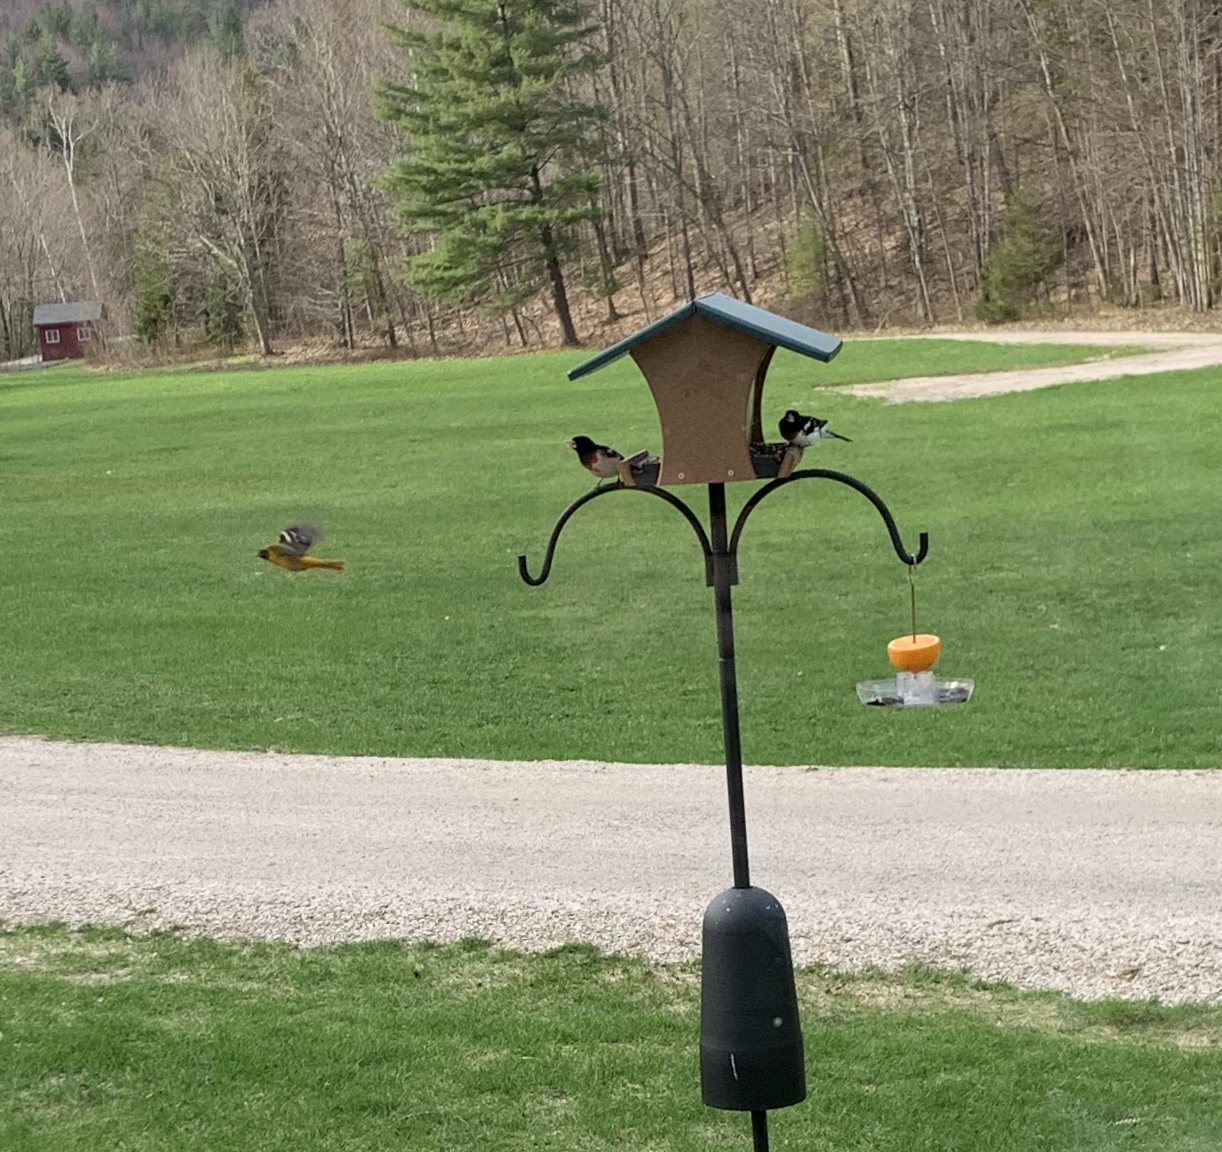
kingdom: Animalia
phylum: Chordata
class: Aves
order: Passeriformes
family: Icteridae
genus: Icterus
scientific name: Icterus galbula
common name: Baltimore oriole
